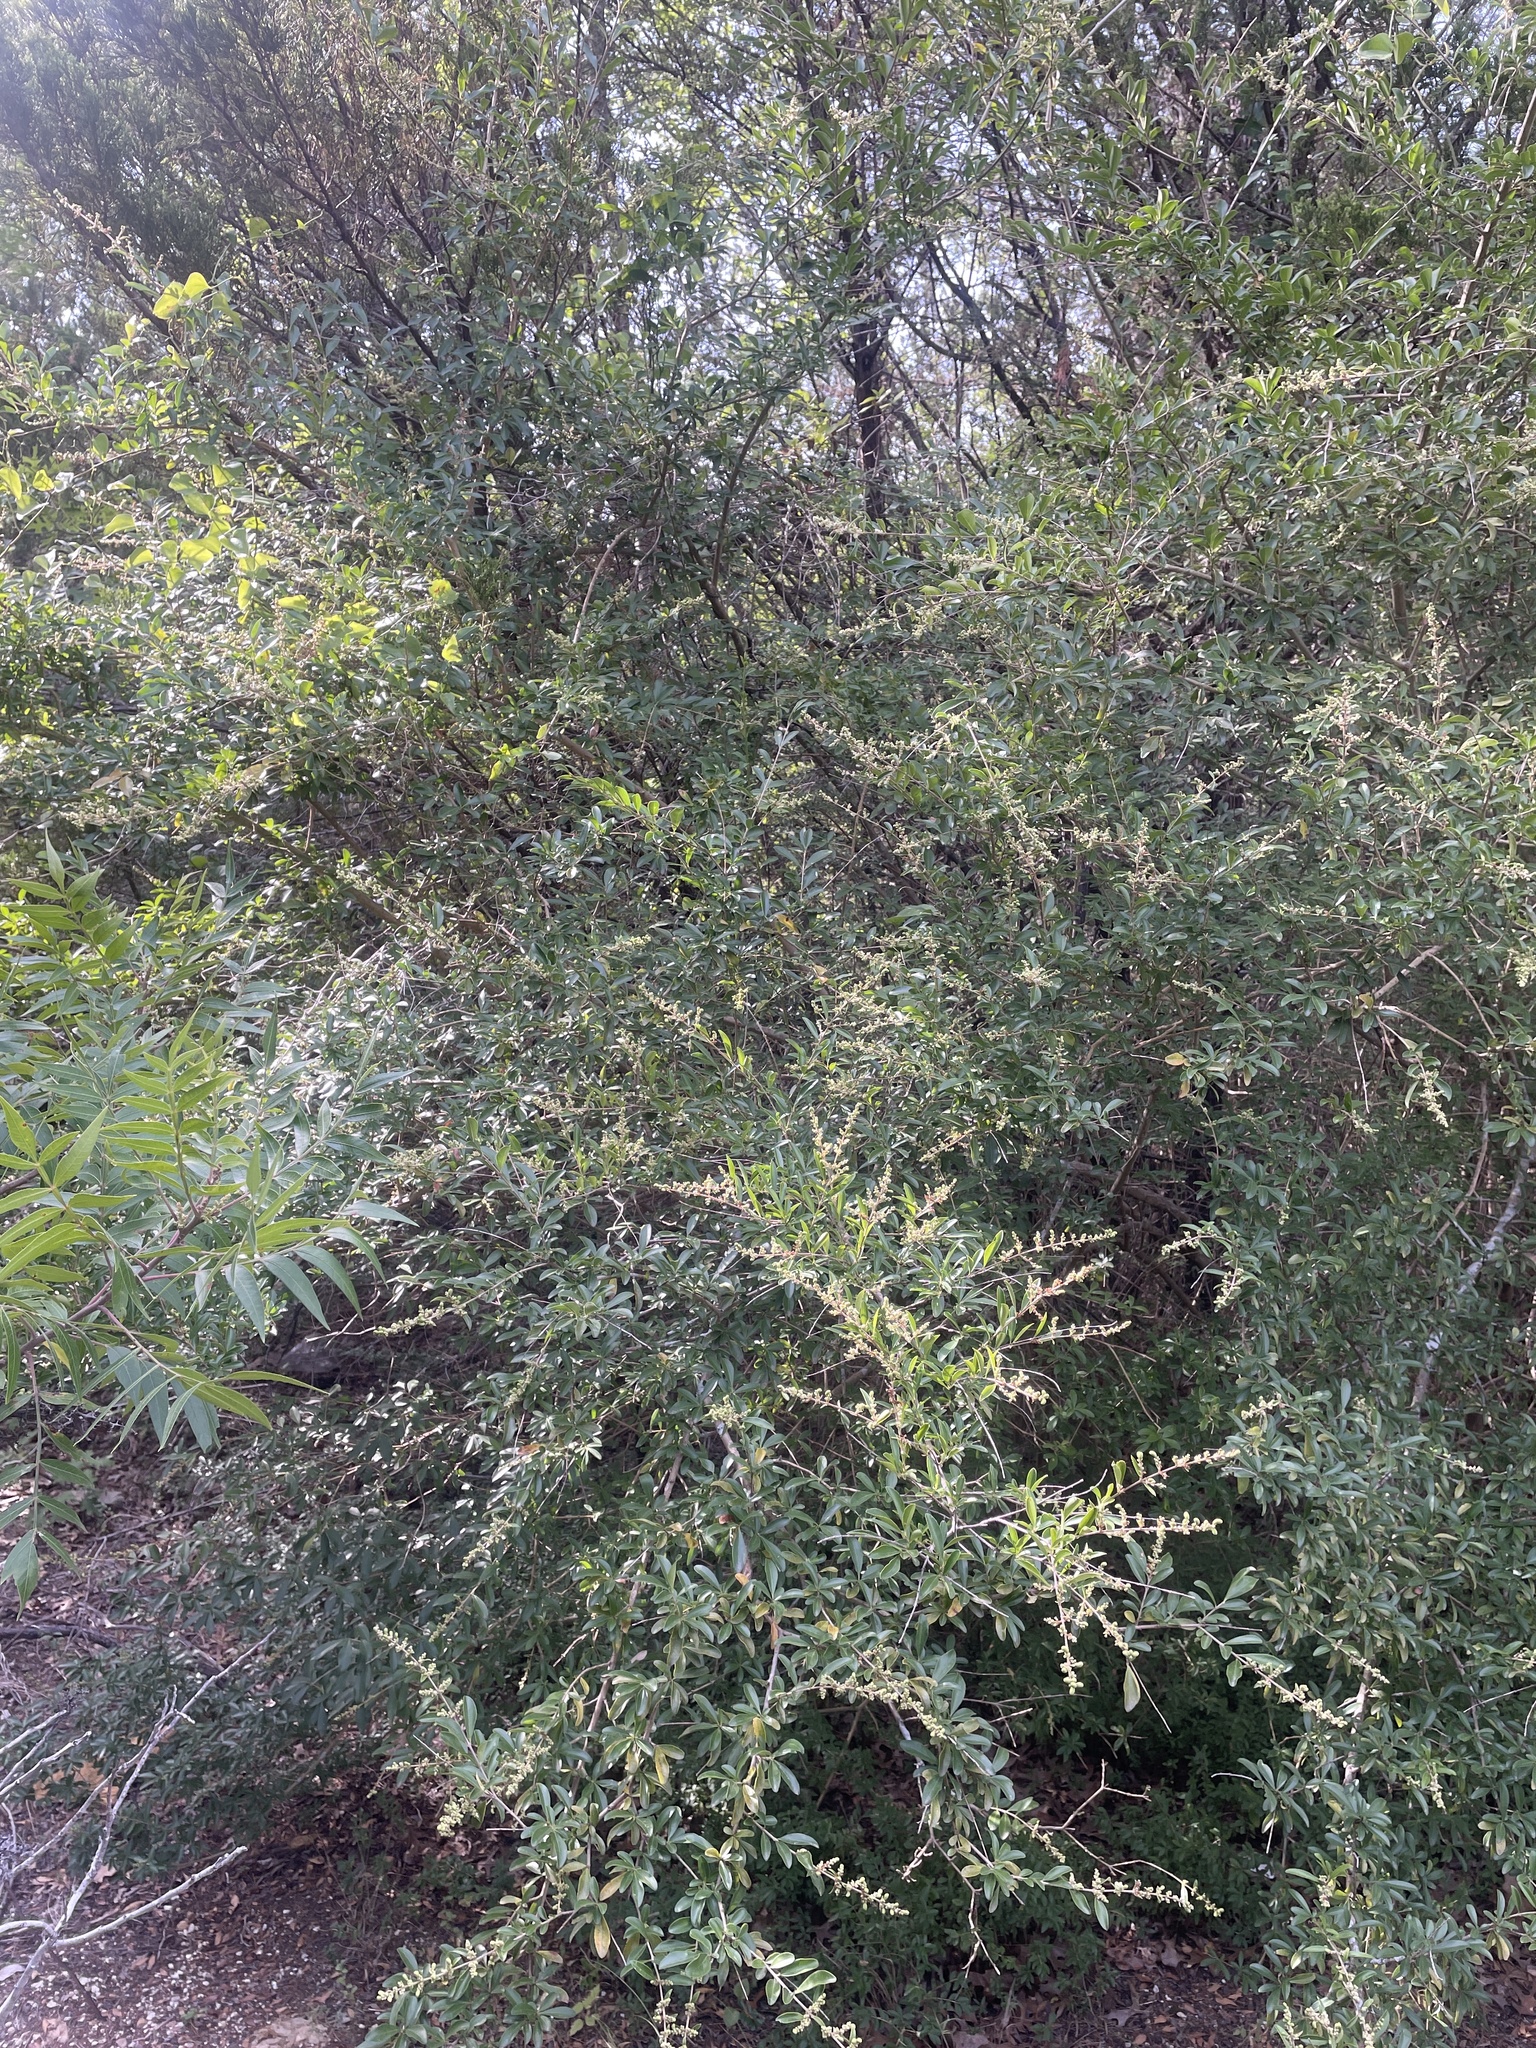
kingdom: Plantae
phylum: Tracheophyta
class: Magnoliopsida
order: Lamiales
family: Oleaceae
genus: Ligustrum
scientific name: Ligustrum quihoui
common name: Waxyleaf privet
